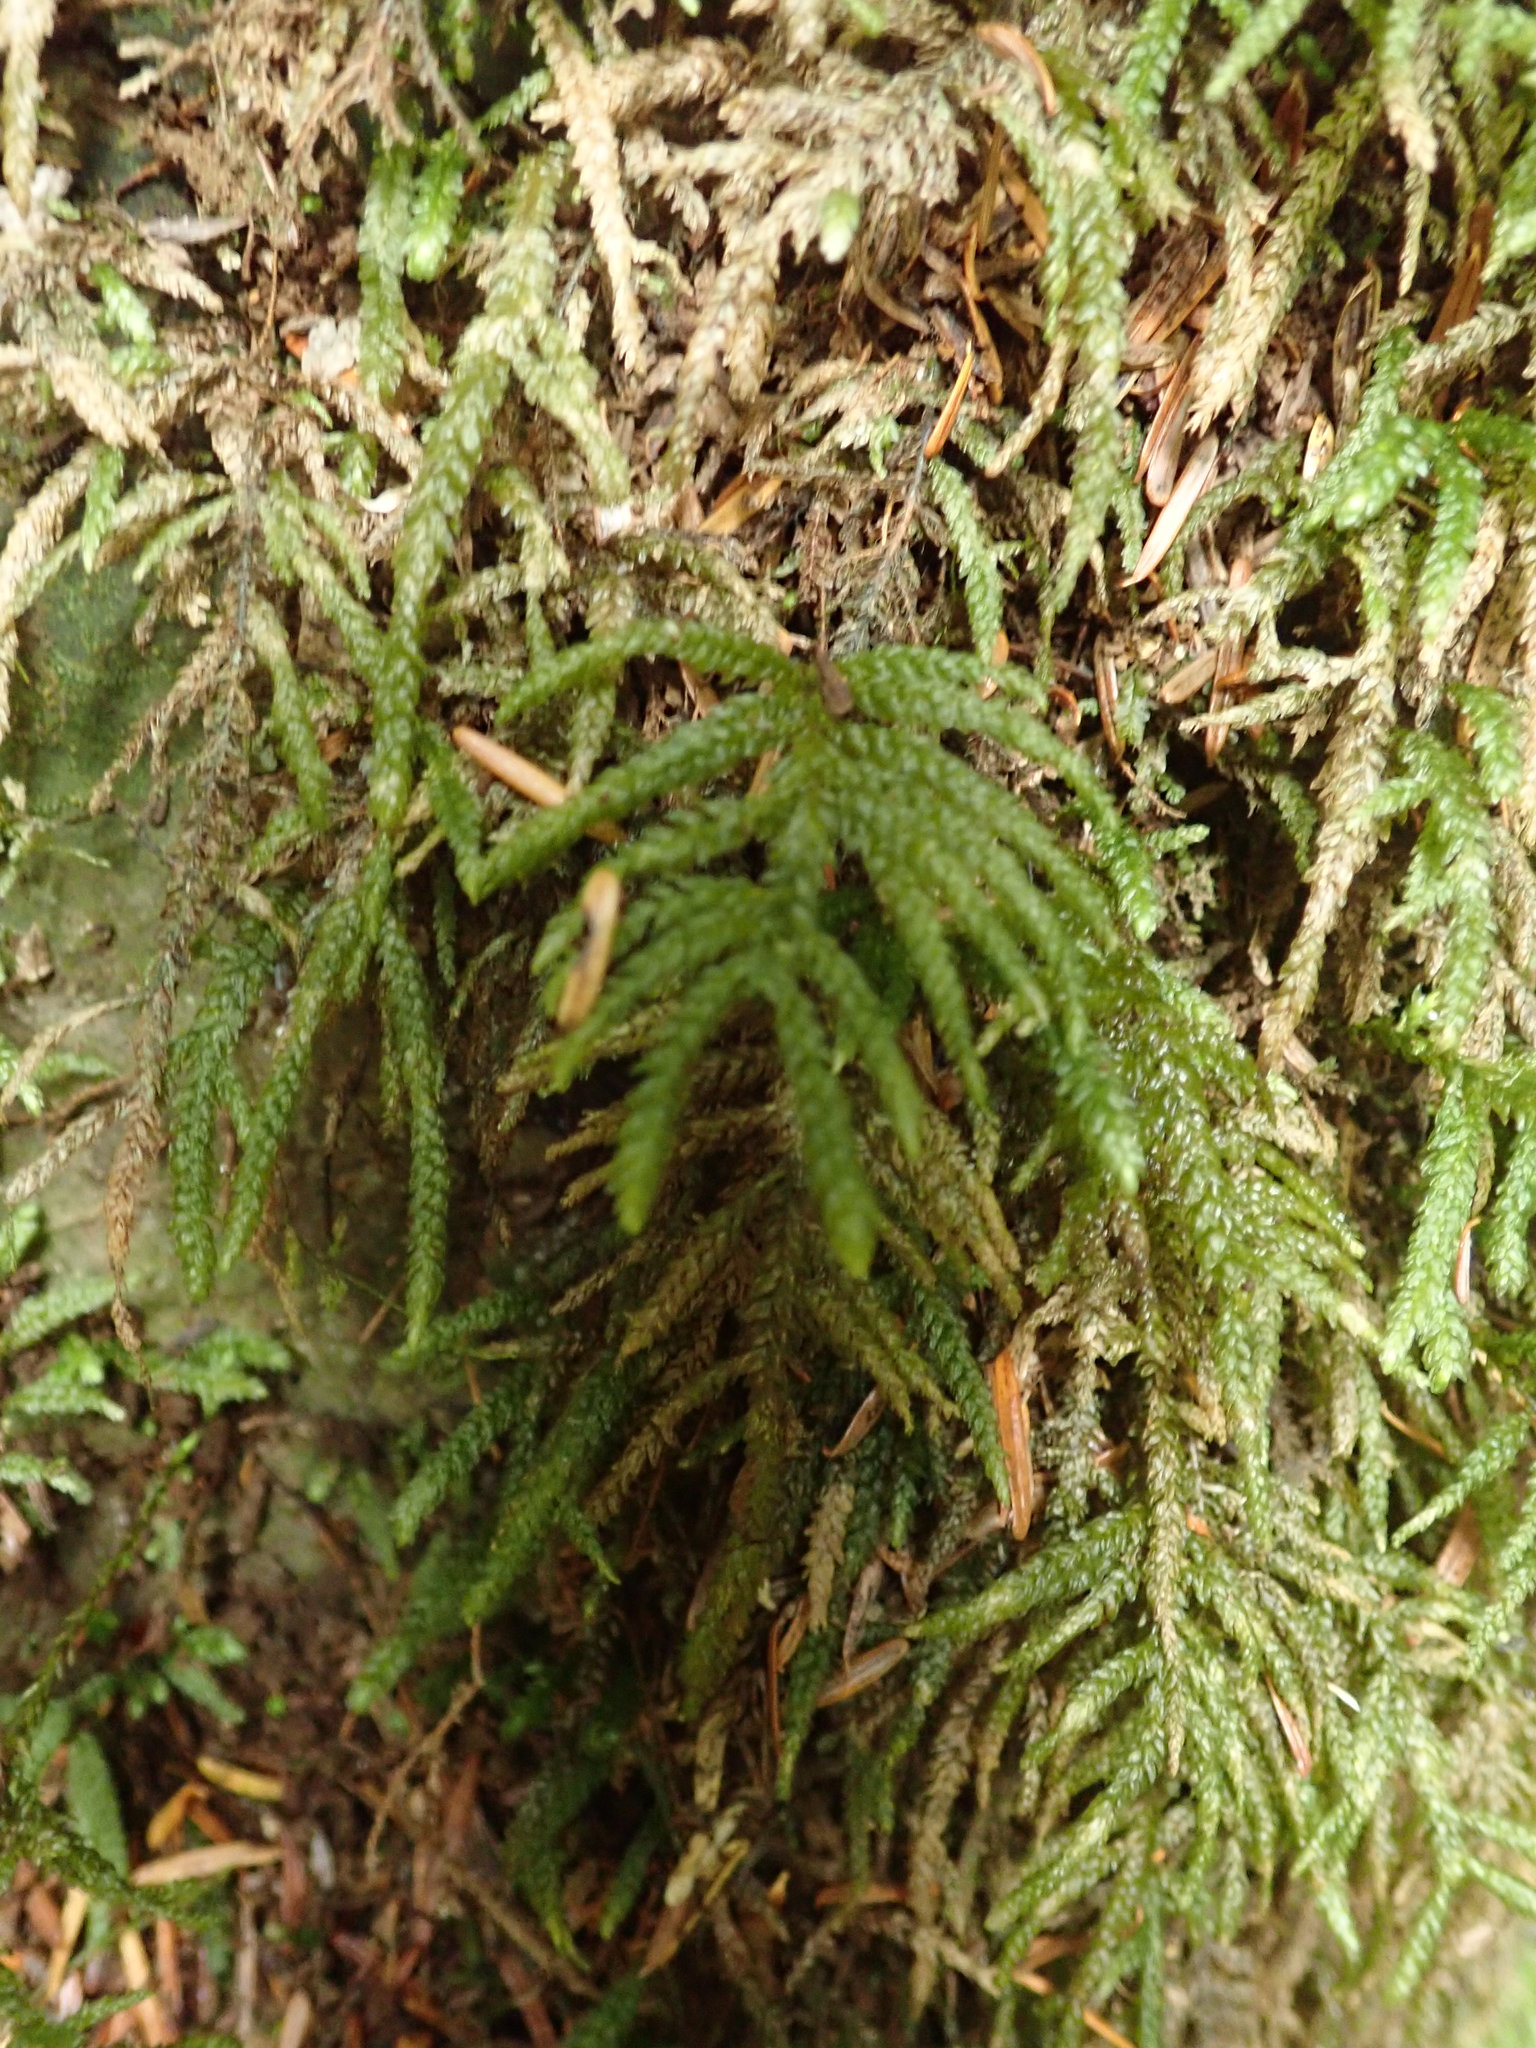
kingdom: Plantae
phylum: Bryophyta
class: Bryopsida
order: Hypnales
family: Neckeraceae
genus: Thamnobryum
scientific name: Thamnobryum neckeroides
